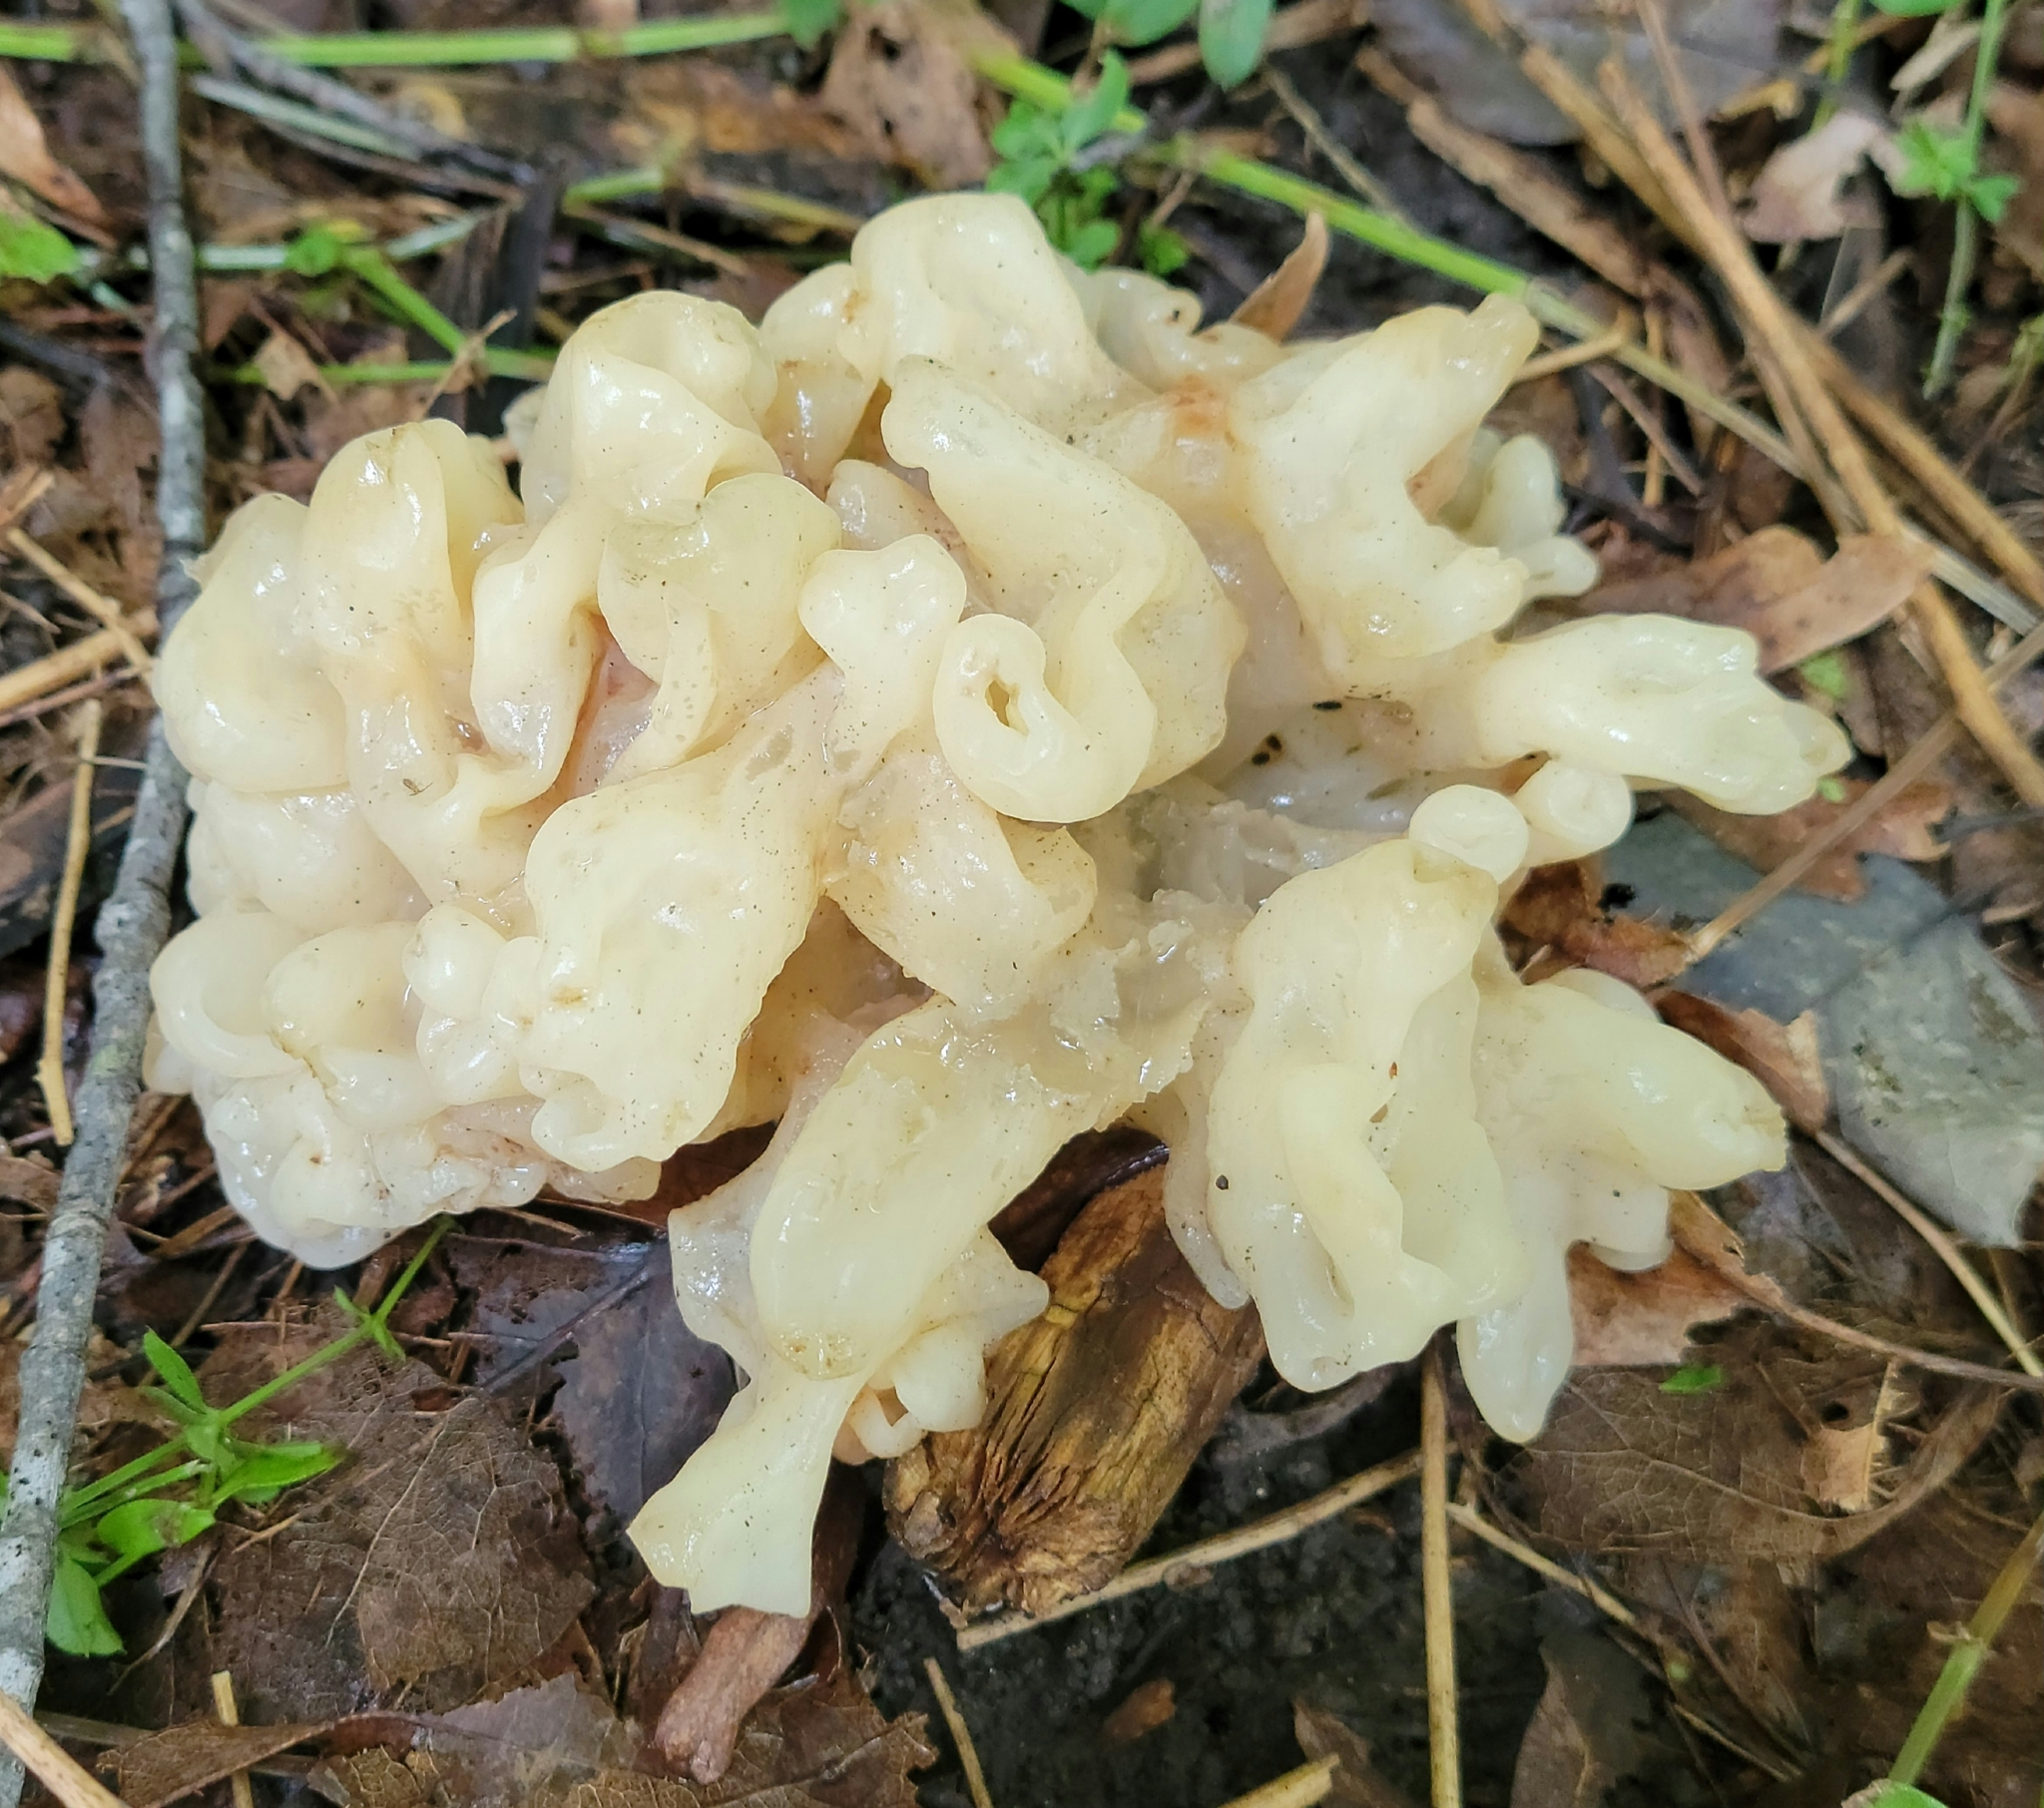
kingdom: Fungi
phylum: Basidiomycota
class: Agaricomycetes
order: Sebacinales
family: Sebacinaceae
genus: Sebacina
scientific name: Sebacina sparassoidea
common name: White coral jelly fungus
